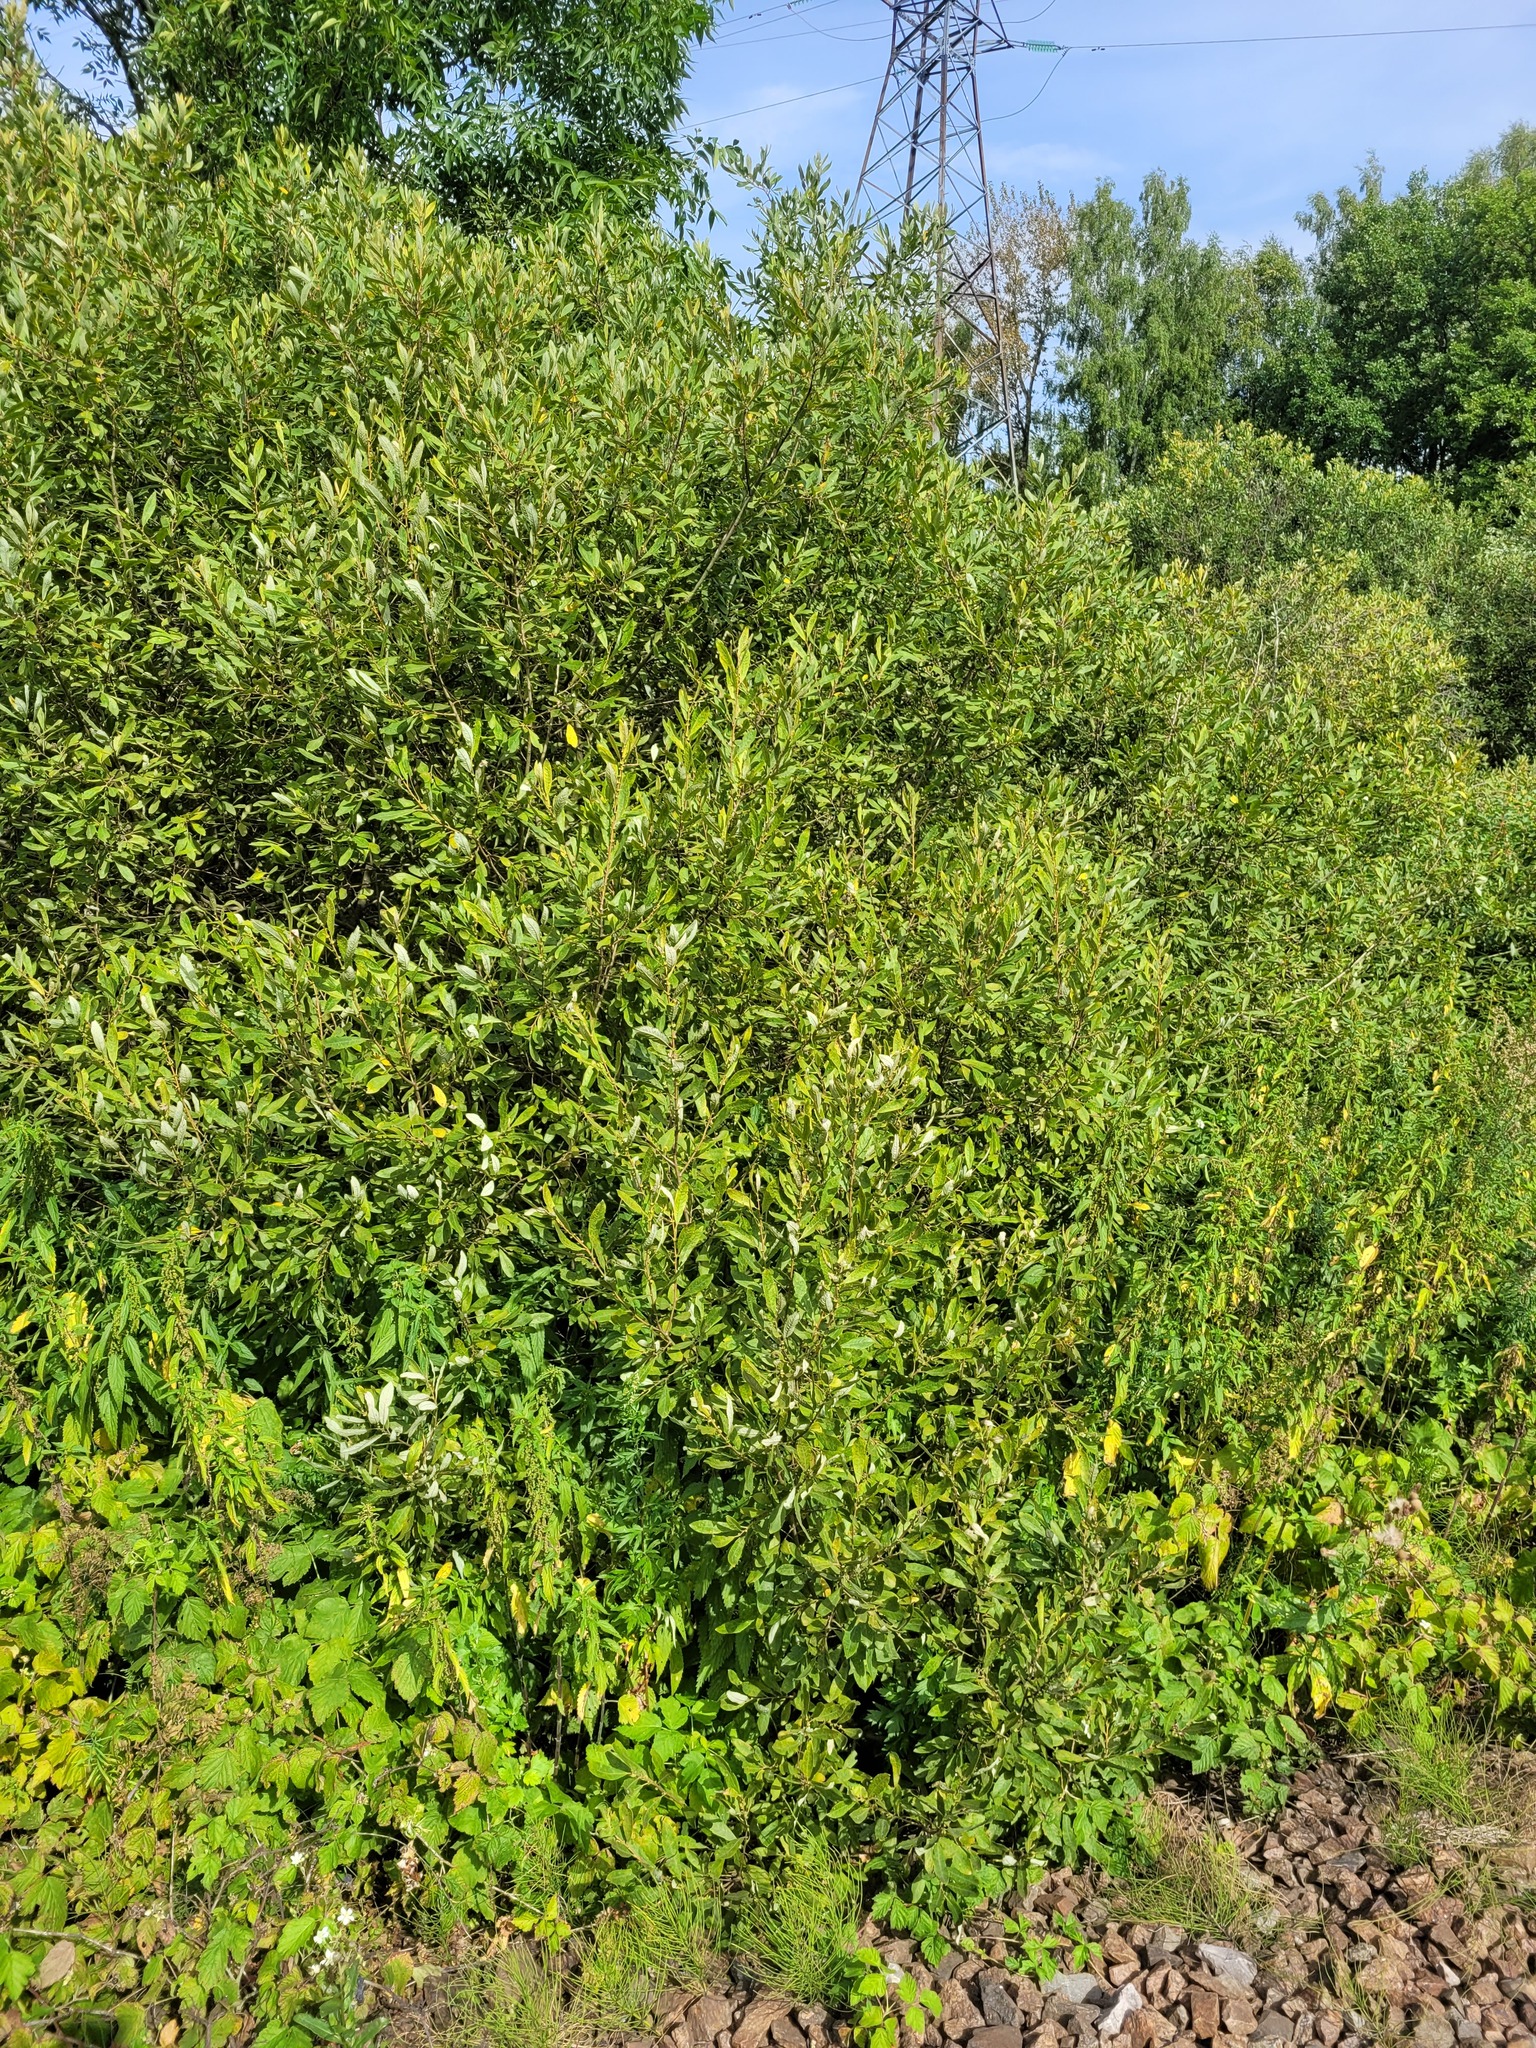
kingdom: Plantae
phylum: Tracheophyta
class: Magnoliopsida
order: Malpighiales
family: Salicaceae
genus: Salix
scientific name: Salix cinerea
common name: Common sallow
